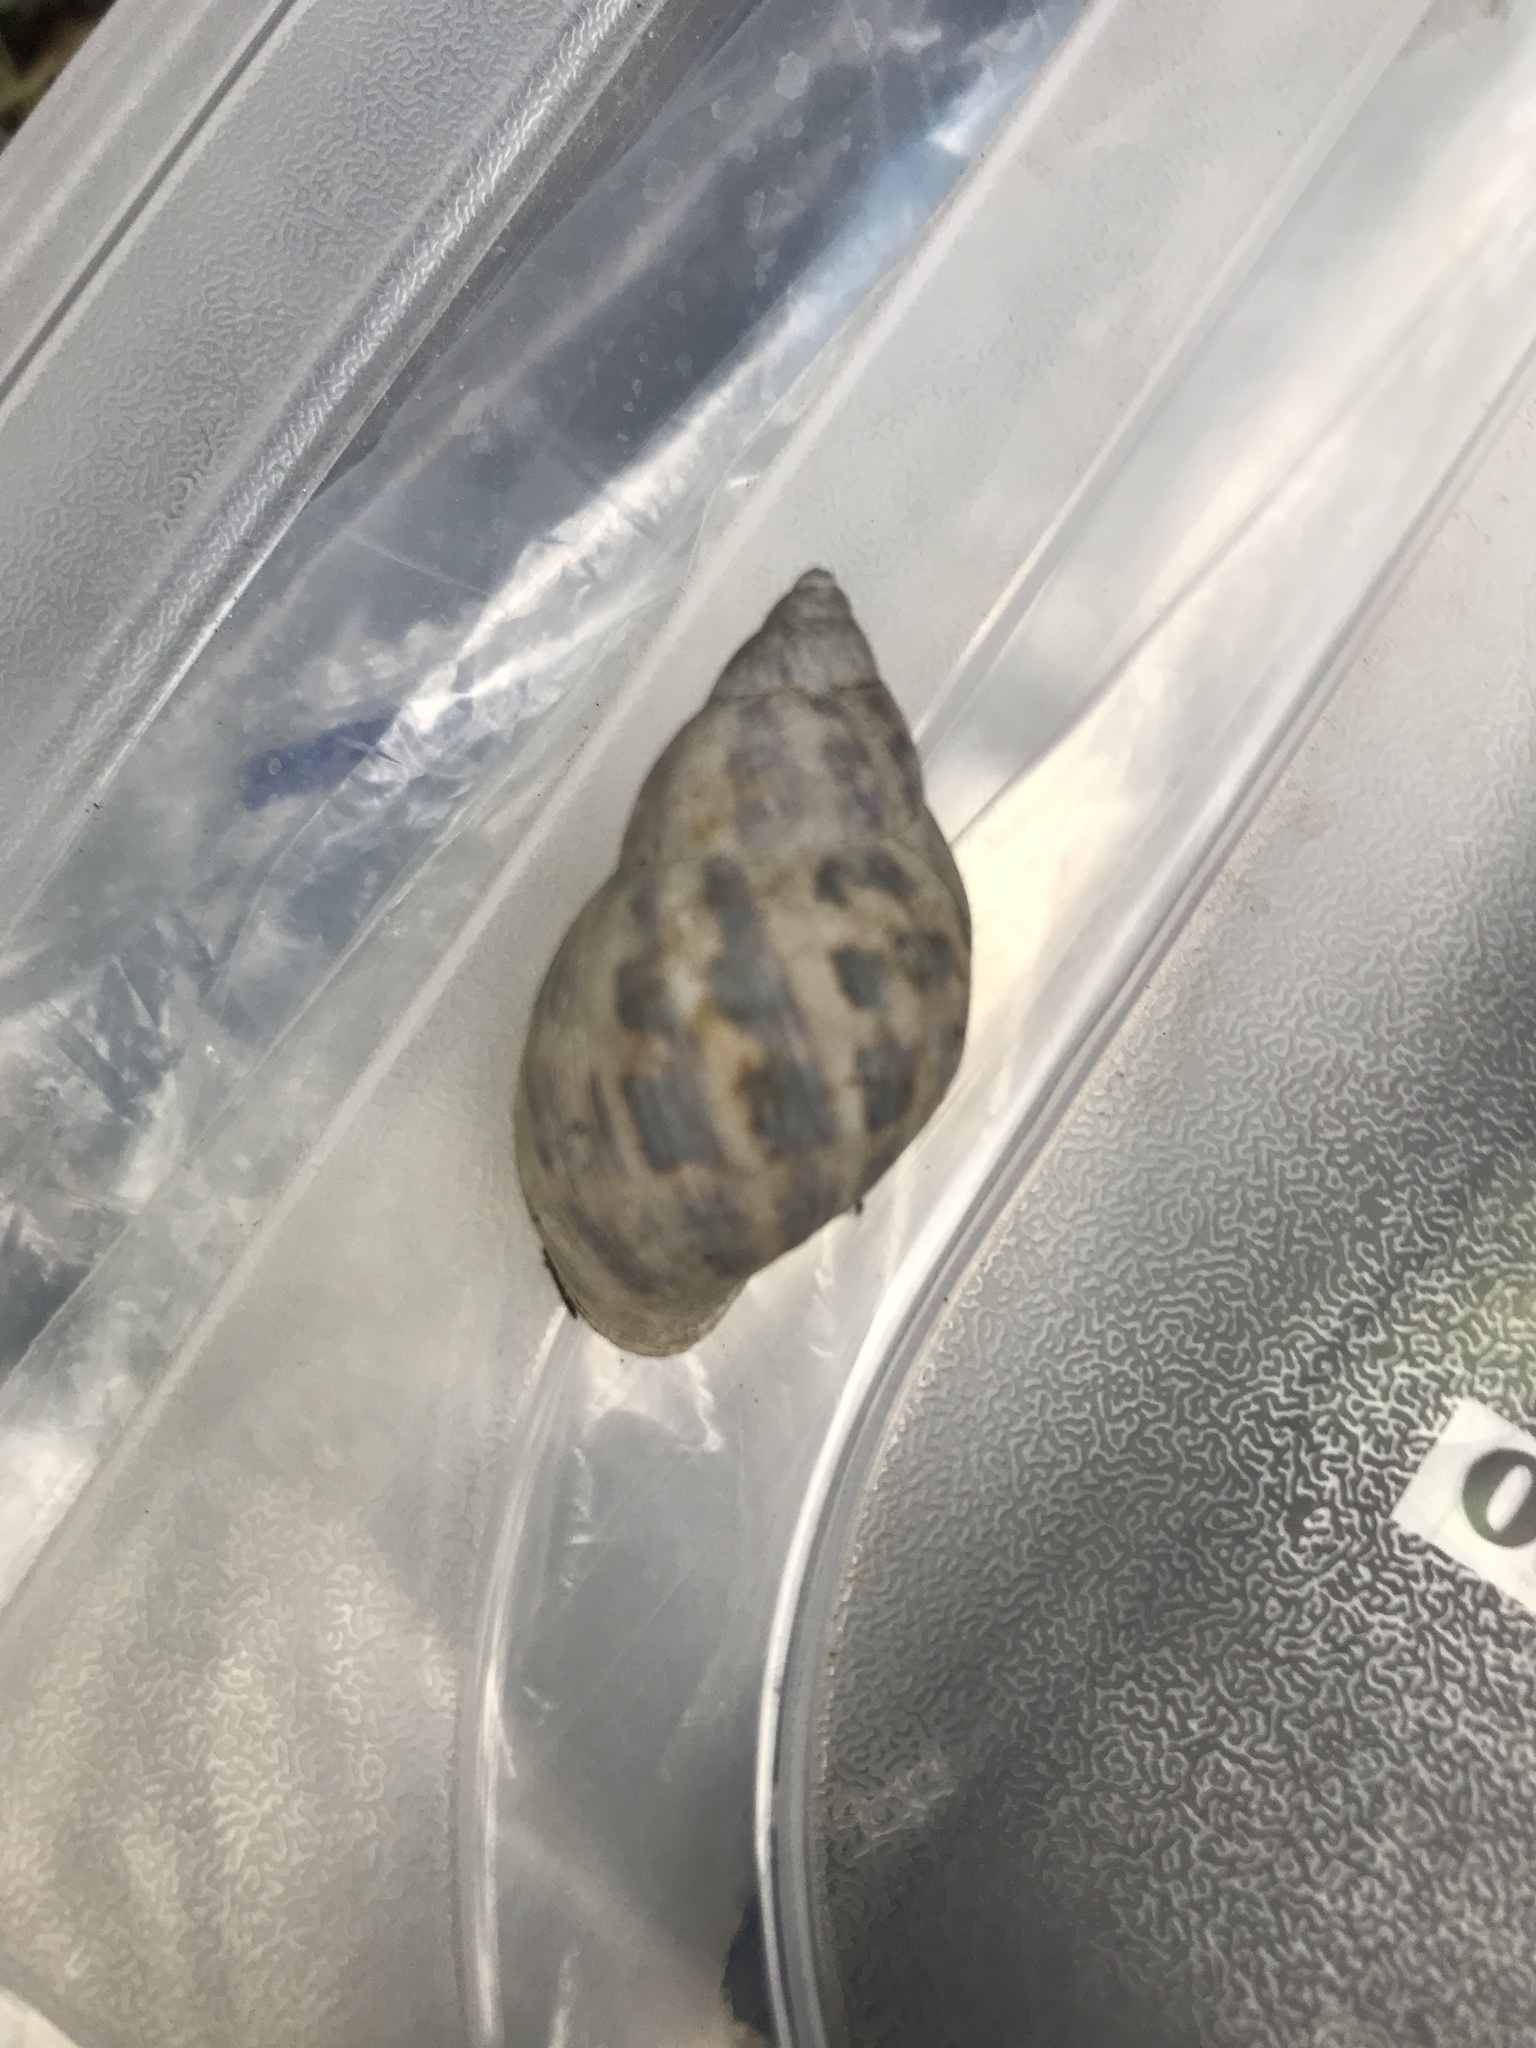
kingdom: Animalia
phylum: Mollusca
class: Gastropoda
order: Stylommatophora
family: Bulimulidae
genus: Drymaeus
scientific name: Drymaeus papyraceus
